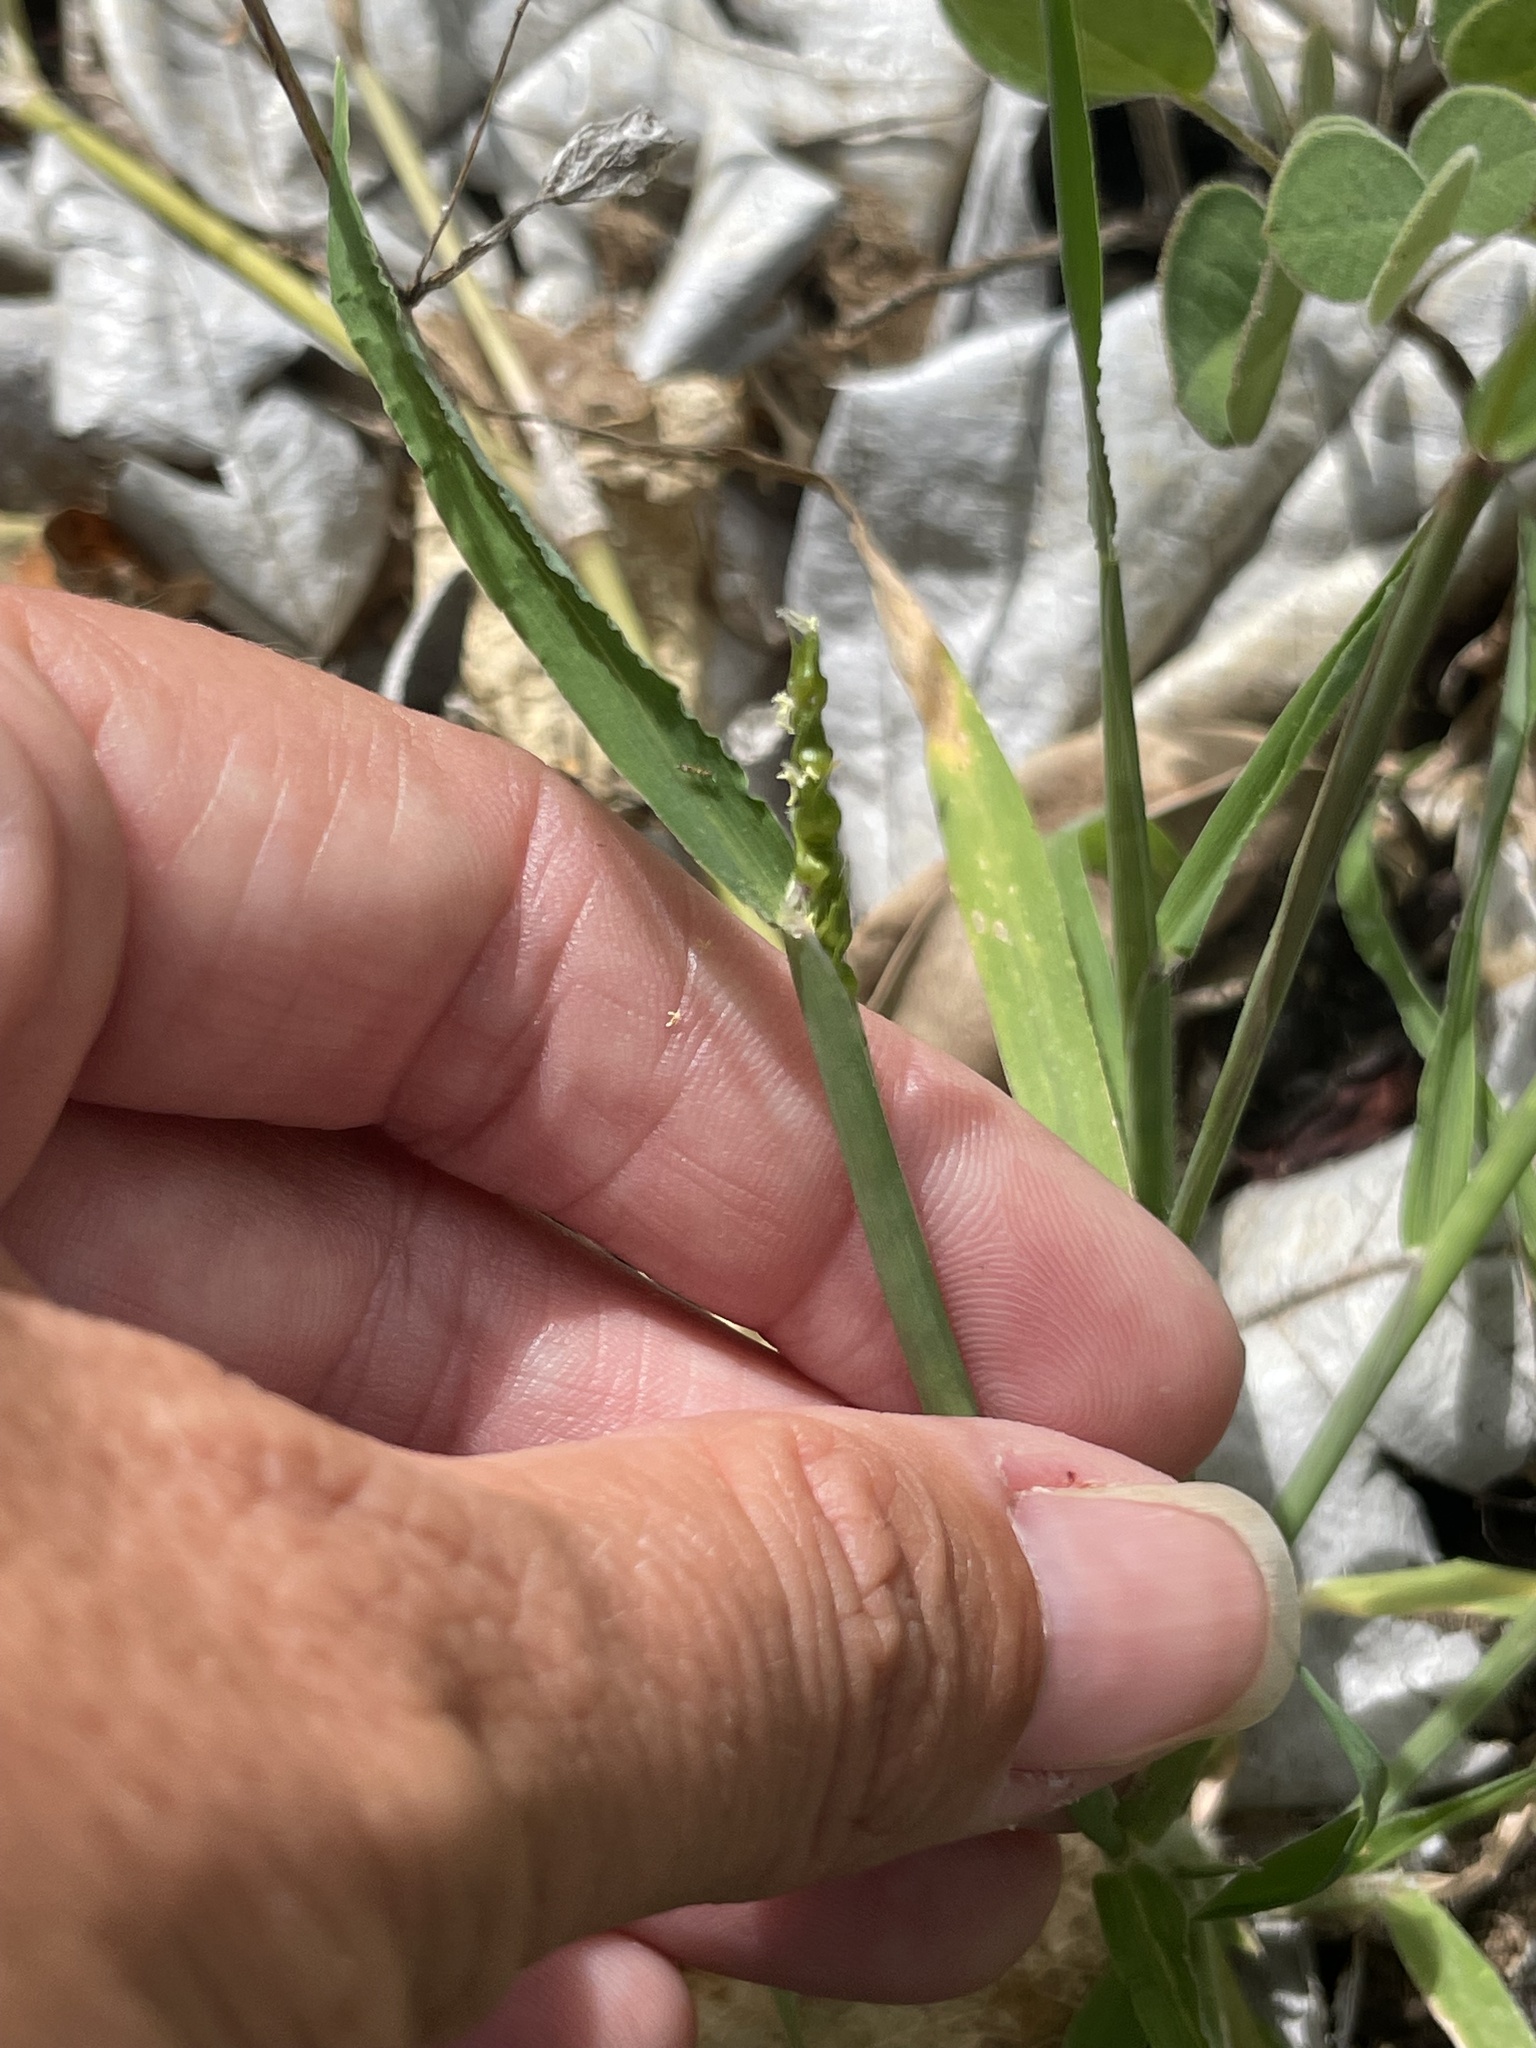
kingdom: Plantae
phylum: Tracheophyta
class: Liliopsida
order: Poales
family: Poaceae
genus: Anthephora
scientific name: Anthephora hermaphrodita
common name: Oldfield grass
